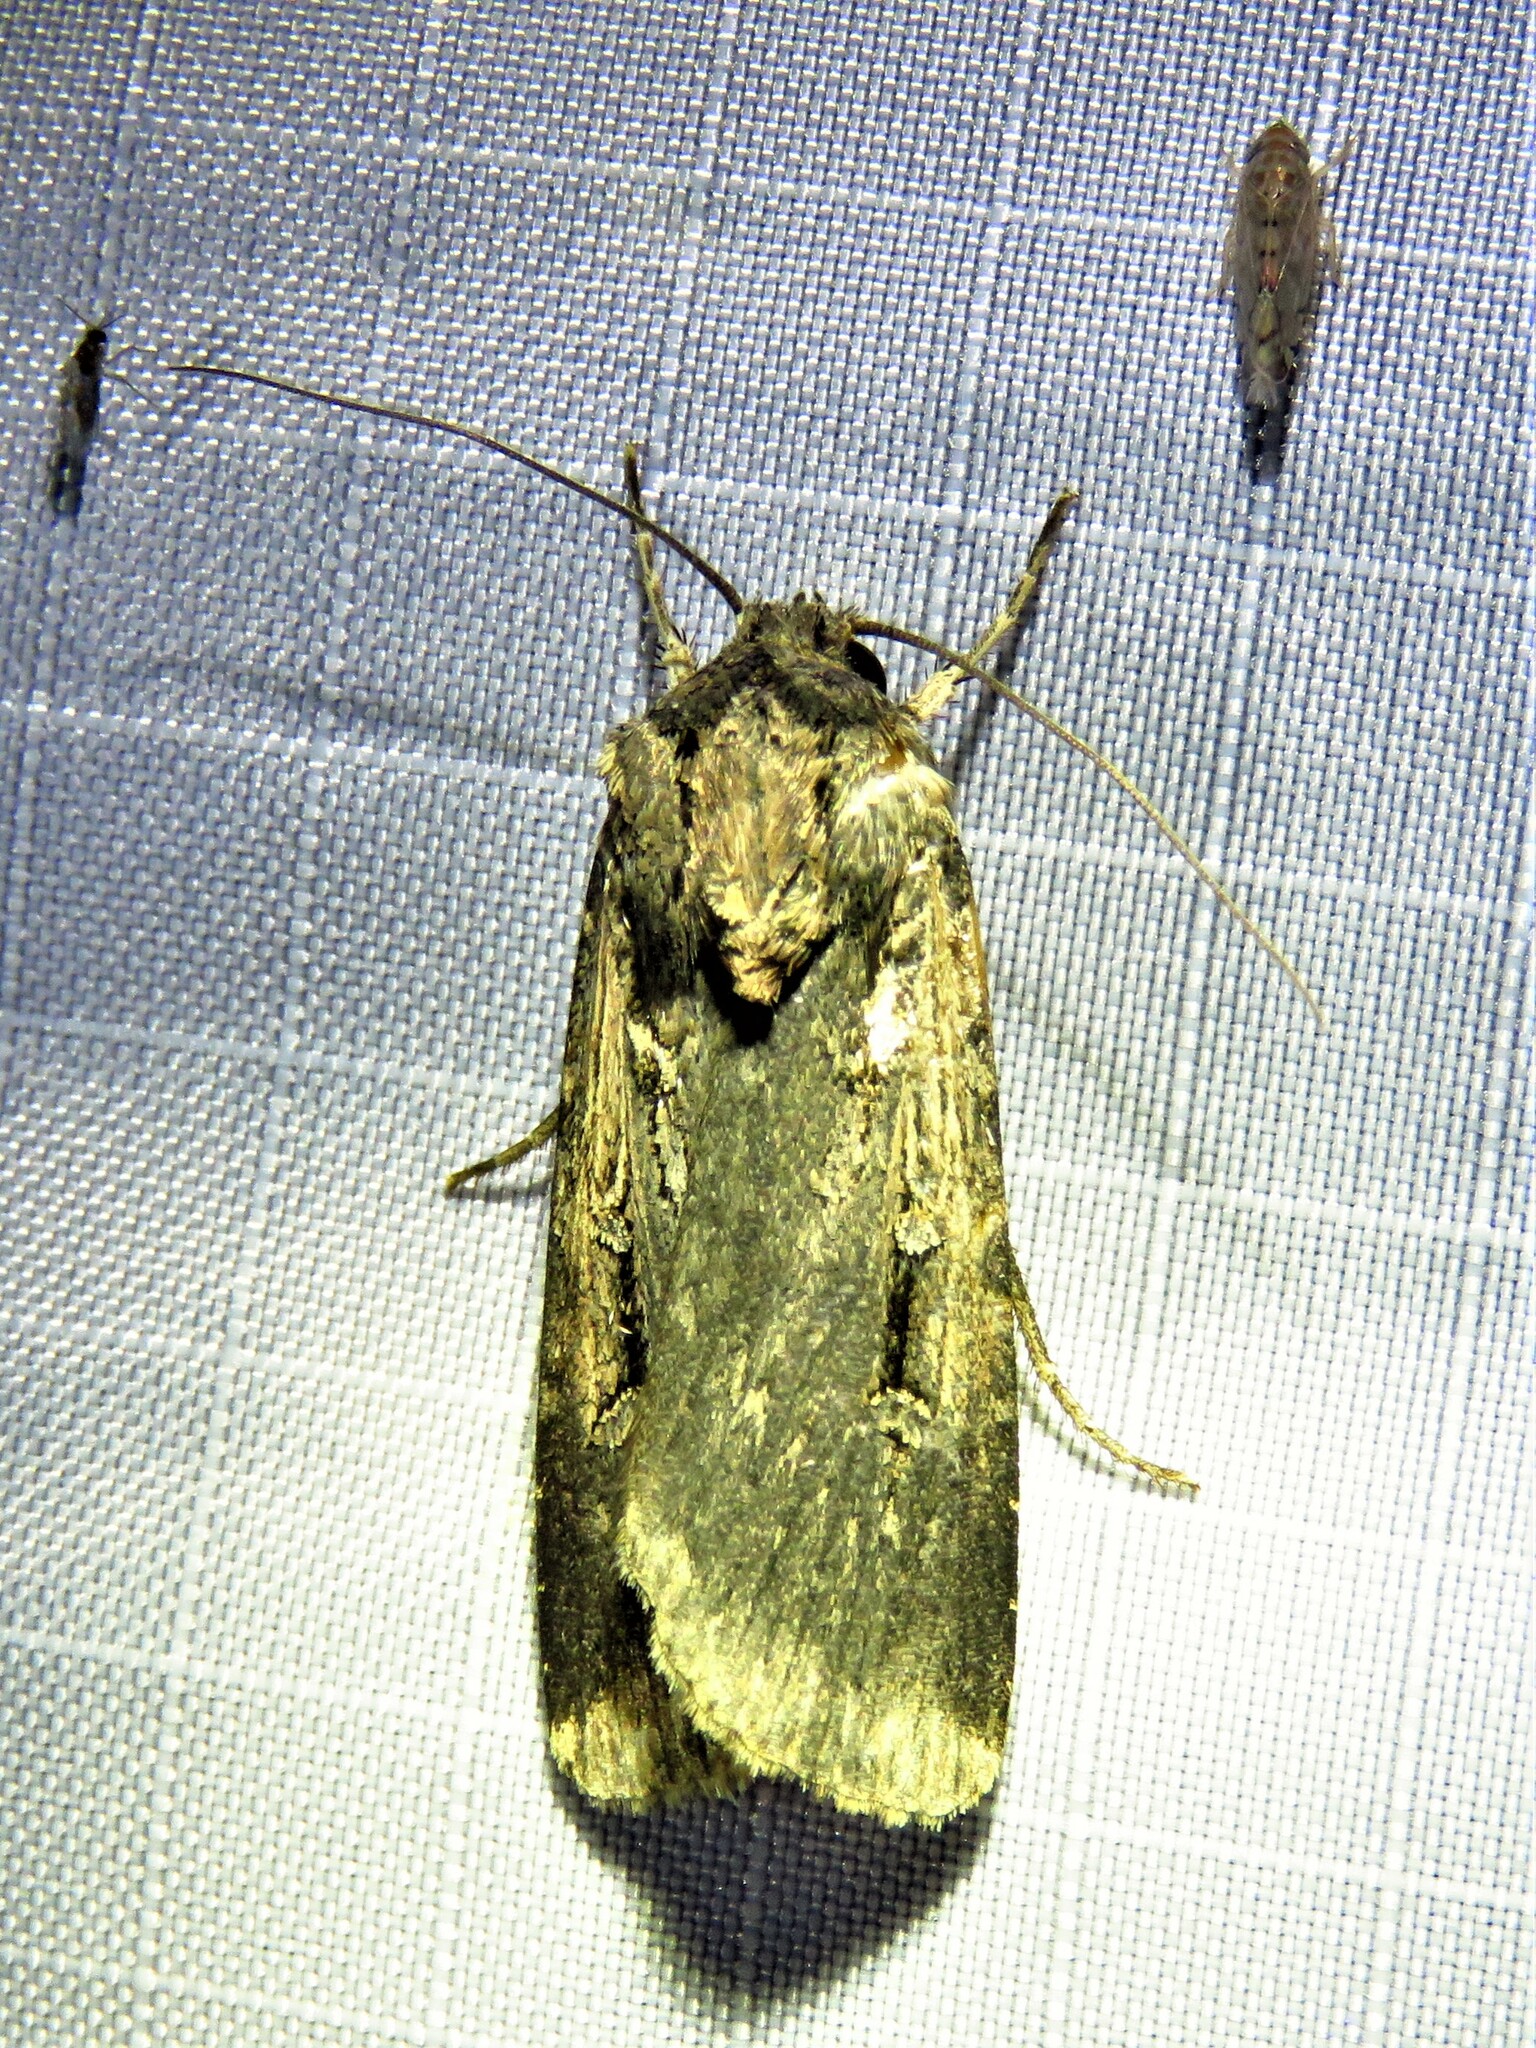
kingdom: Animalia
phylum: Arthropoda
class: Insecta
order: Lepidoptera
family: Noctuidae
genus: Feltia
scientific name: Feltia subterranea
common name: Granulate cutworm
